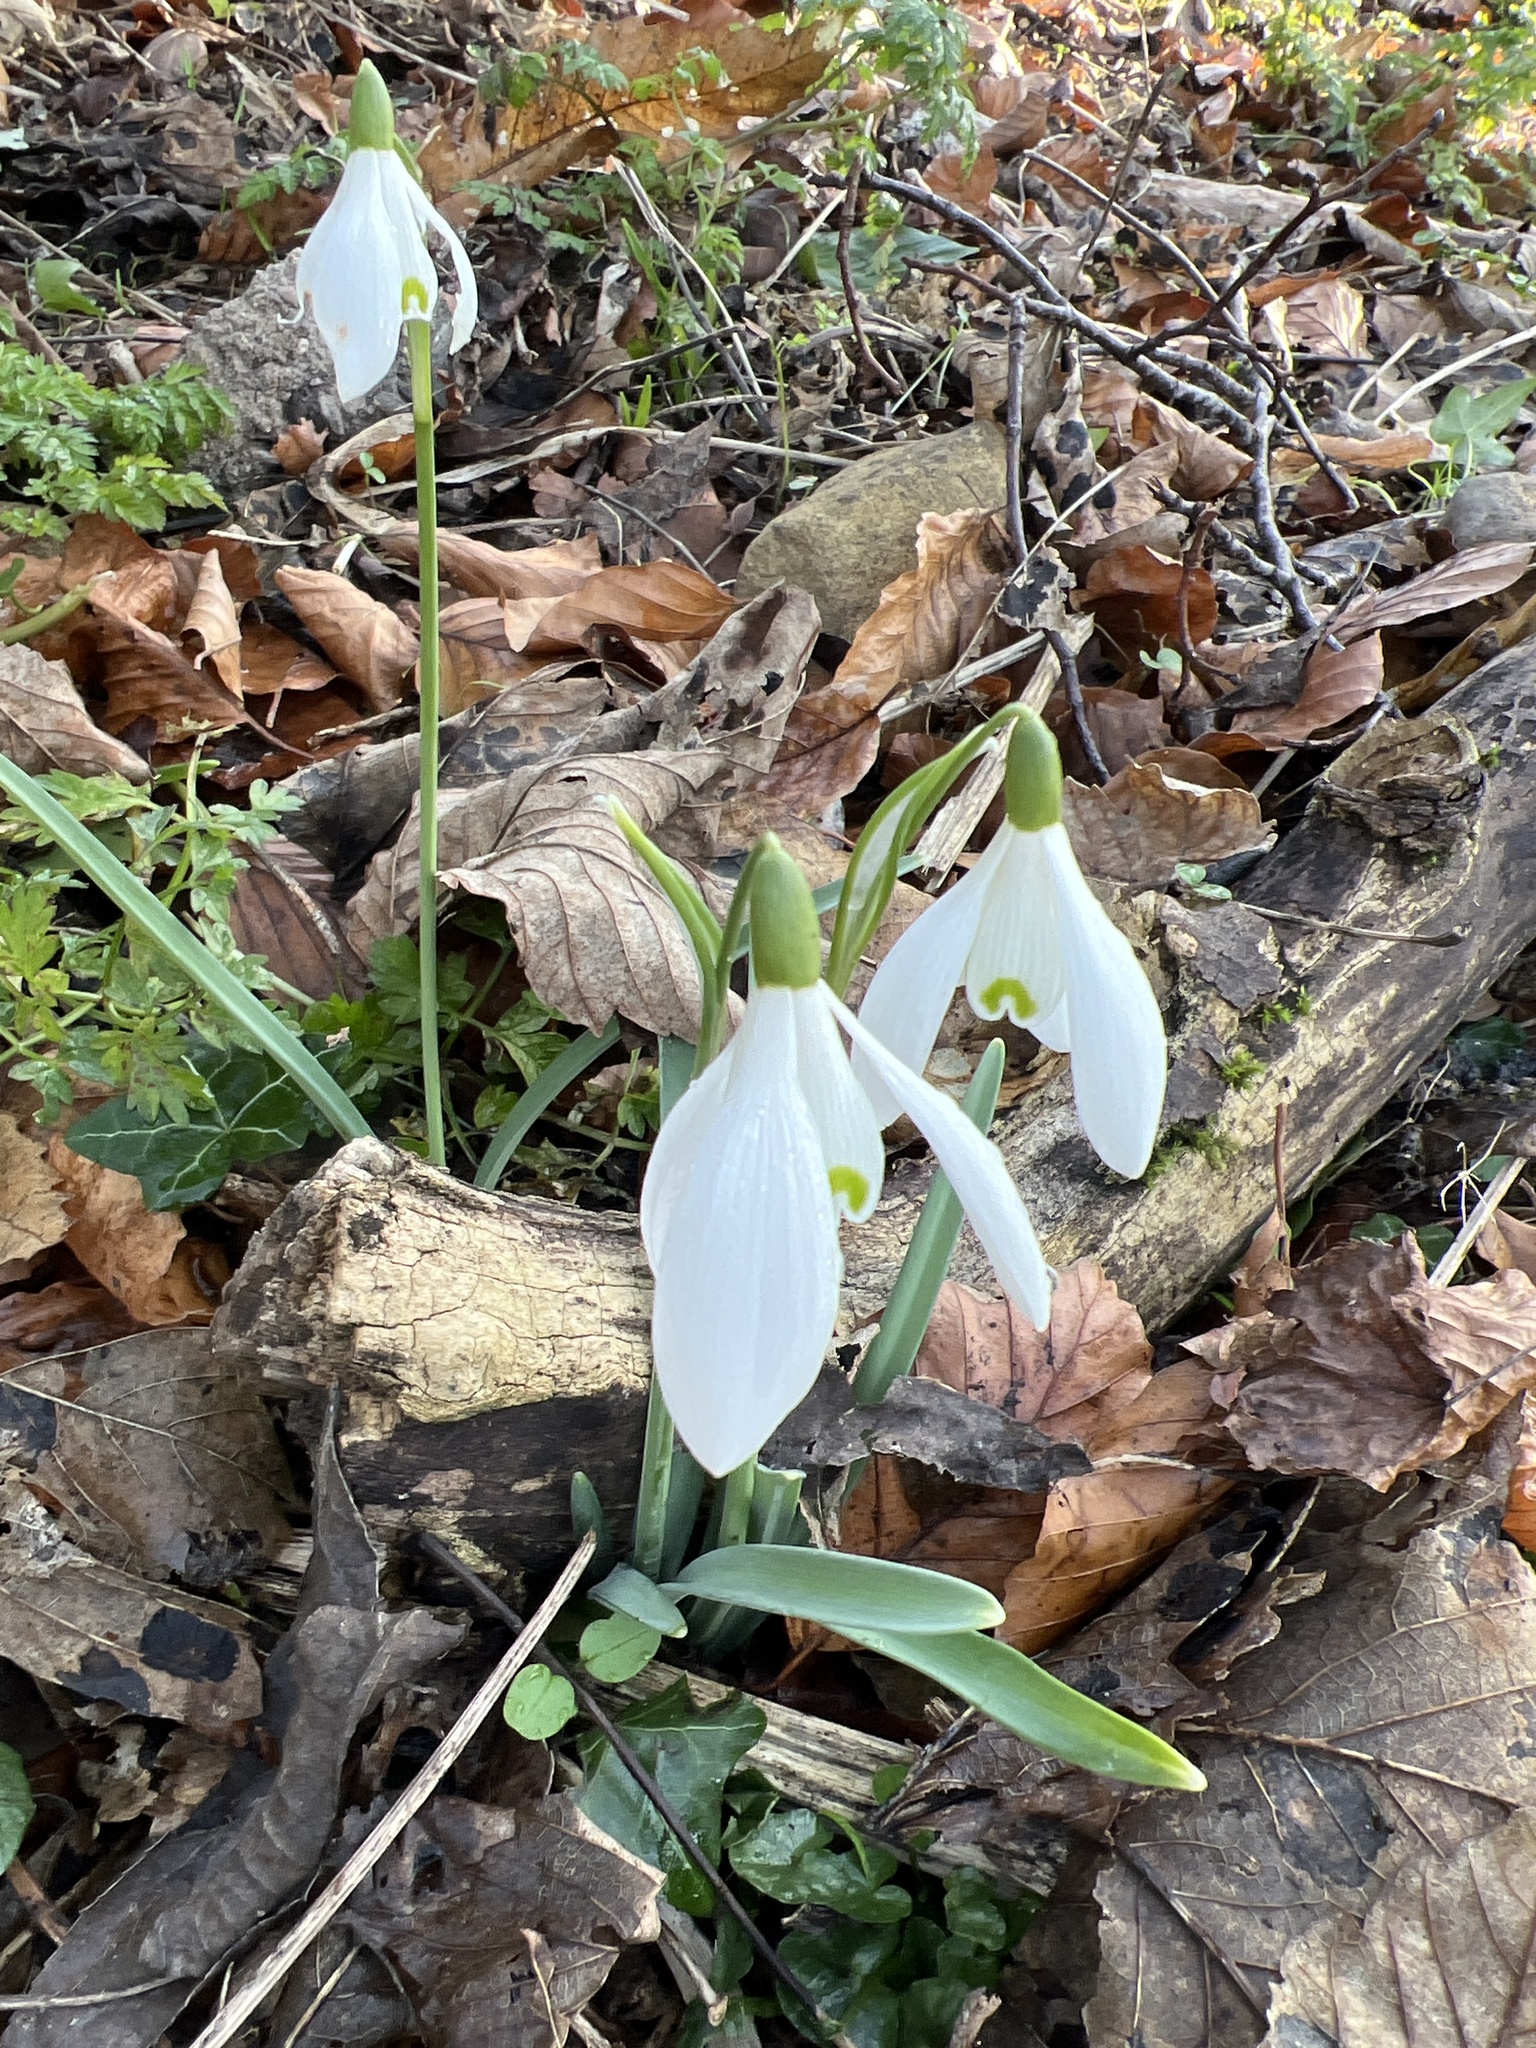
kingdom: Plantae
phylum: Tracheophyta
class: Liliopsida
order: Asparagales
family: Amaryllidaceae
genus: Galanthus
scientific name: Galanthus nivalis
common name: Snowdrop
